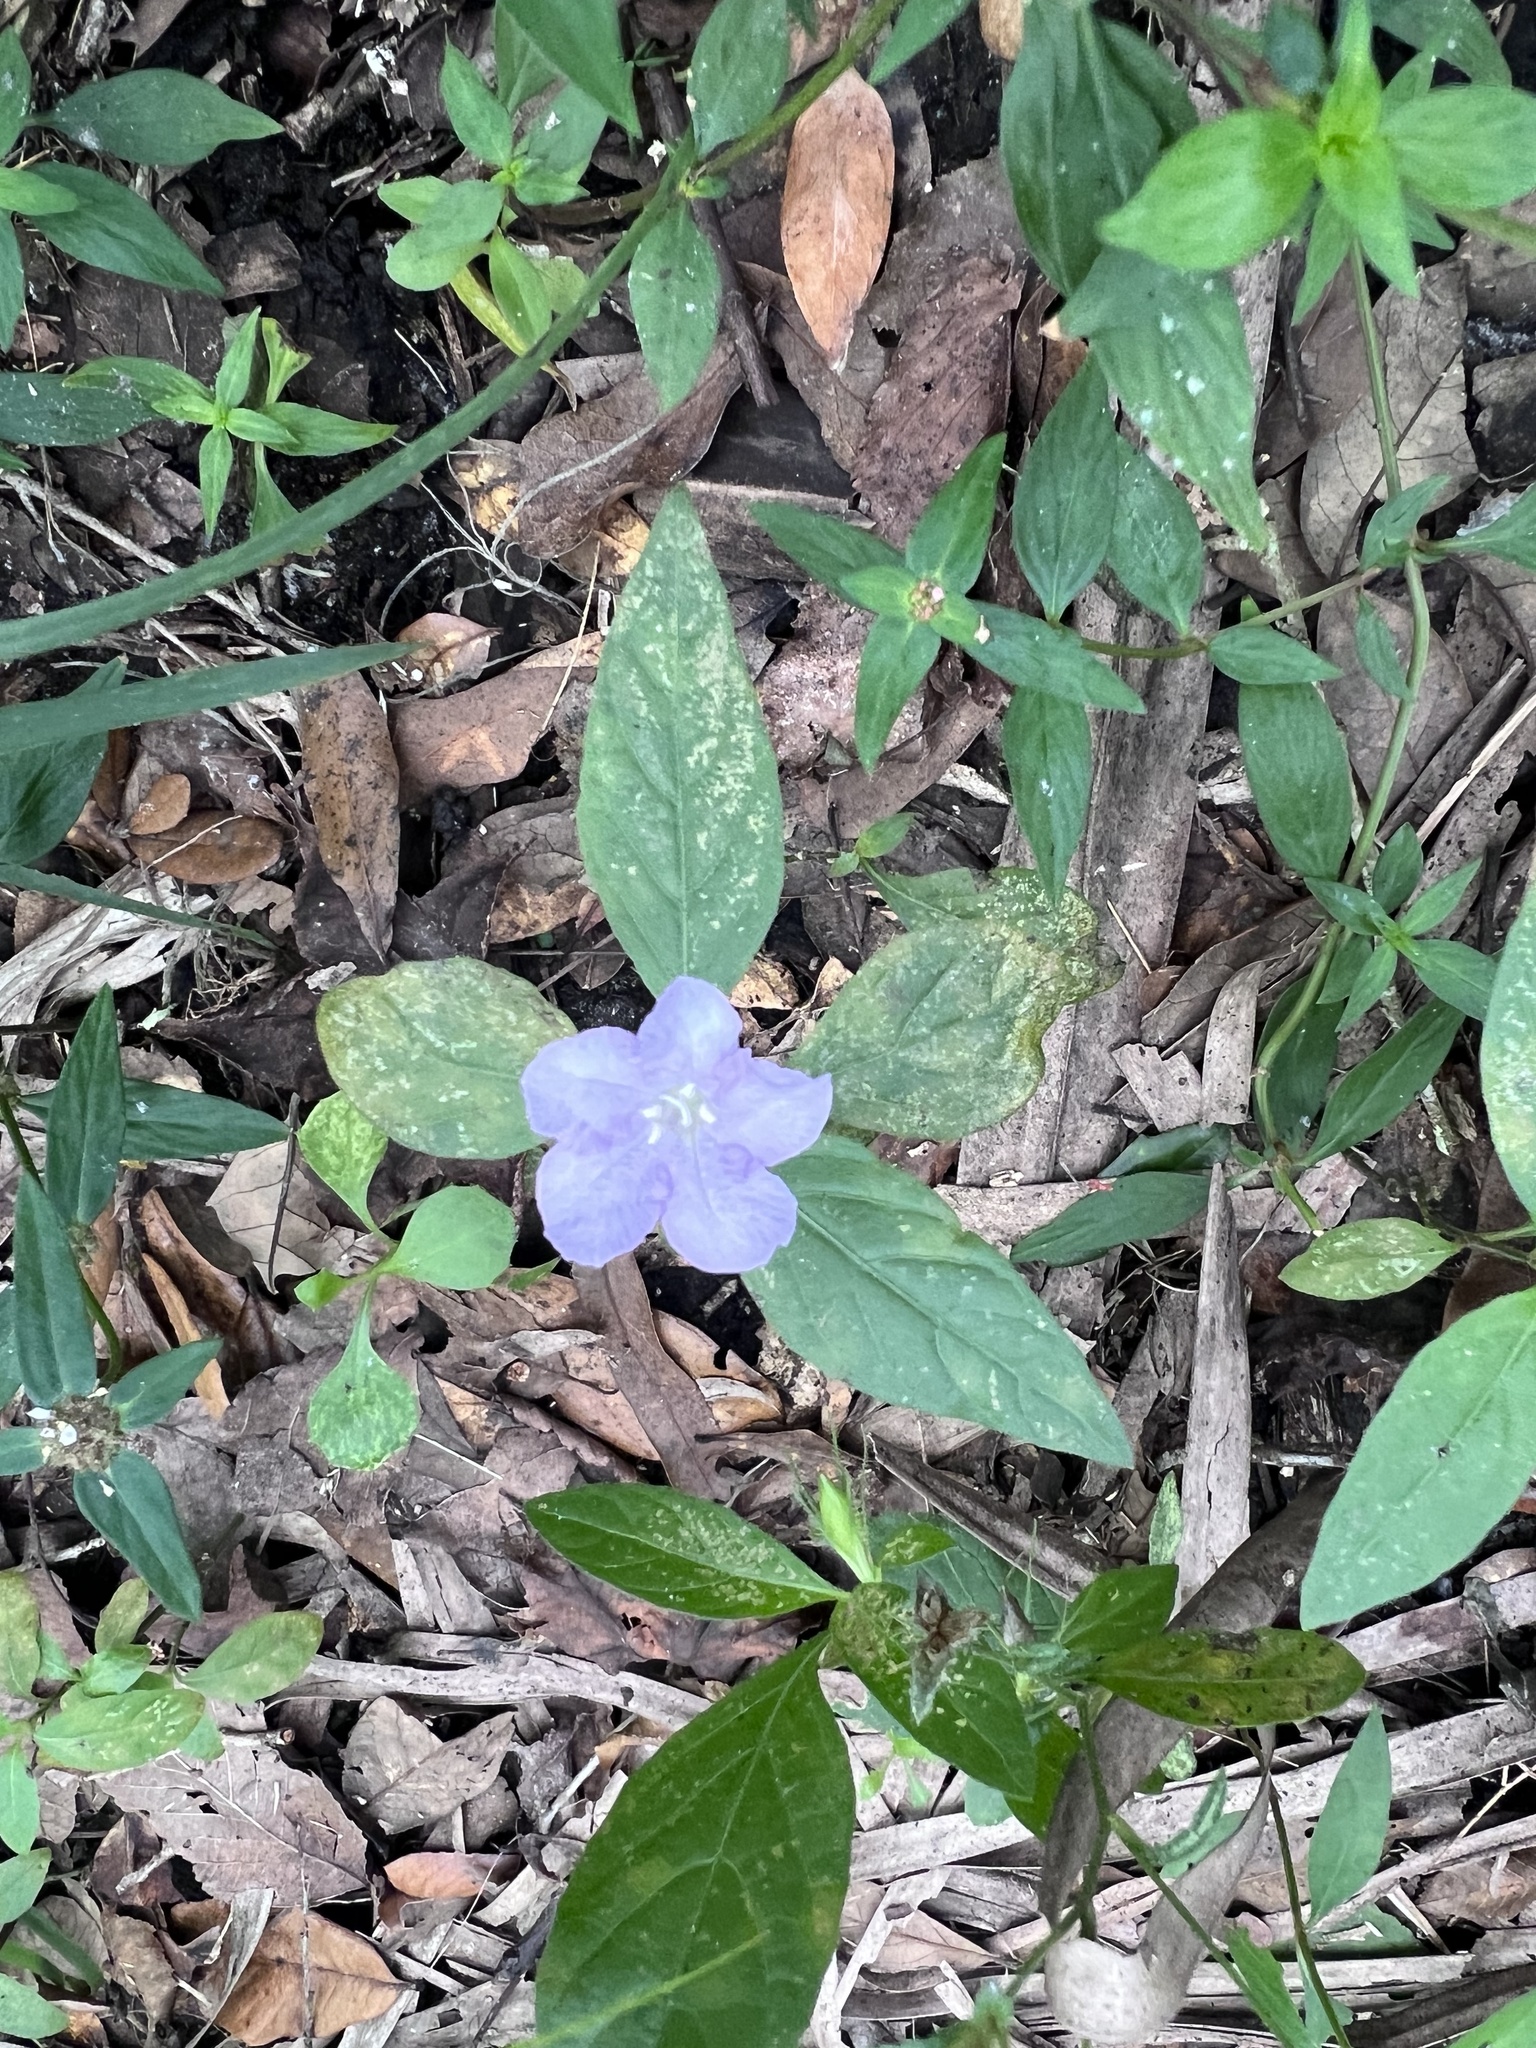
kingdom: Plantae
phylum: Tracheophyta
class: Magnoliopsida
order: Lamiales
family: Acanthaceae
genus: Ruellia
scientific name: Ruellia caroliniensis
